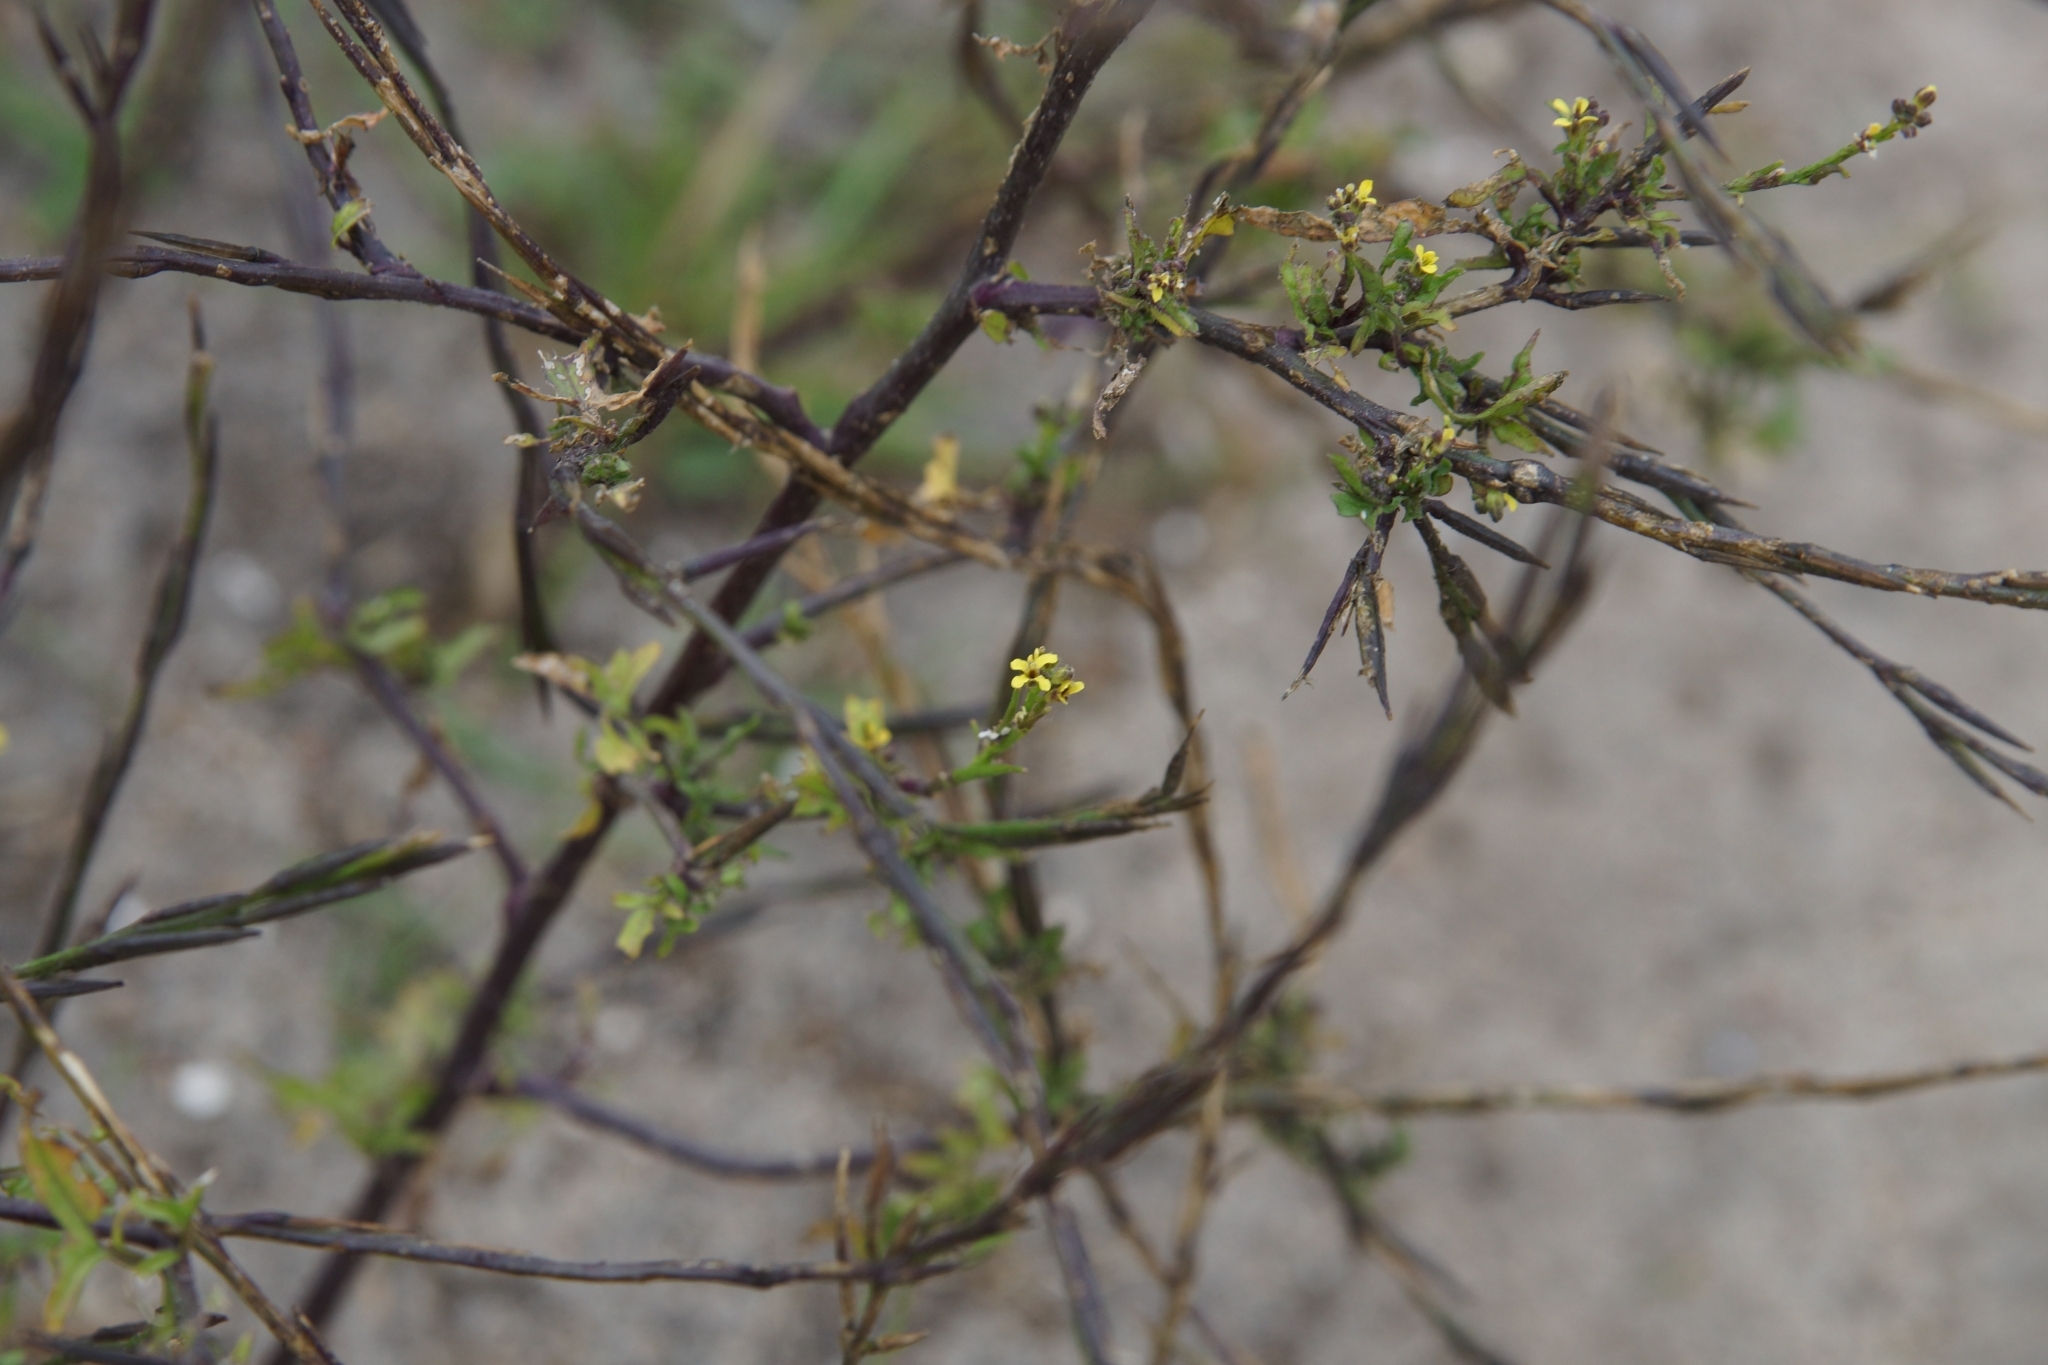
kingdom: Plantae
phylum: Tracheophyta
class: Magnoliopsida
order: Brassicales
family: Brassicaceae
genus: Sisymbrium
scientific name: Sisymbrium officinale
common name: Hedge mustard
